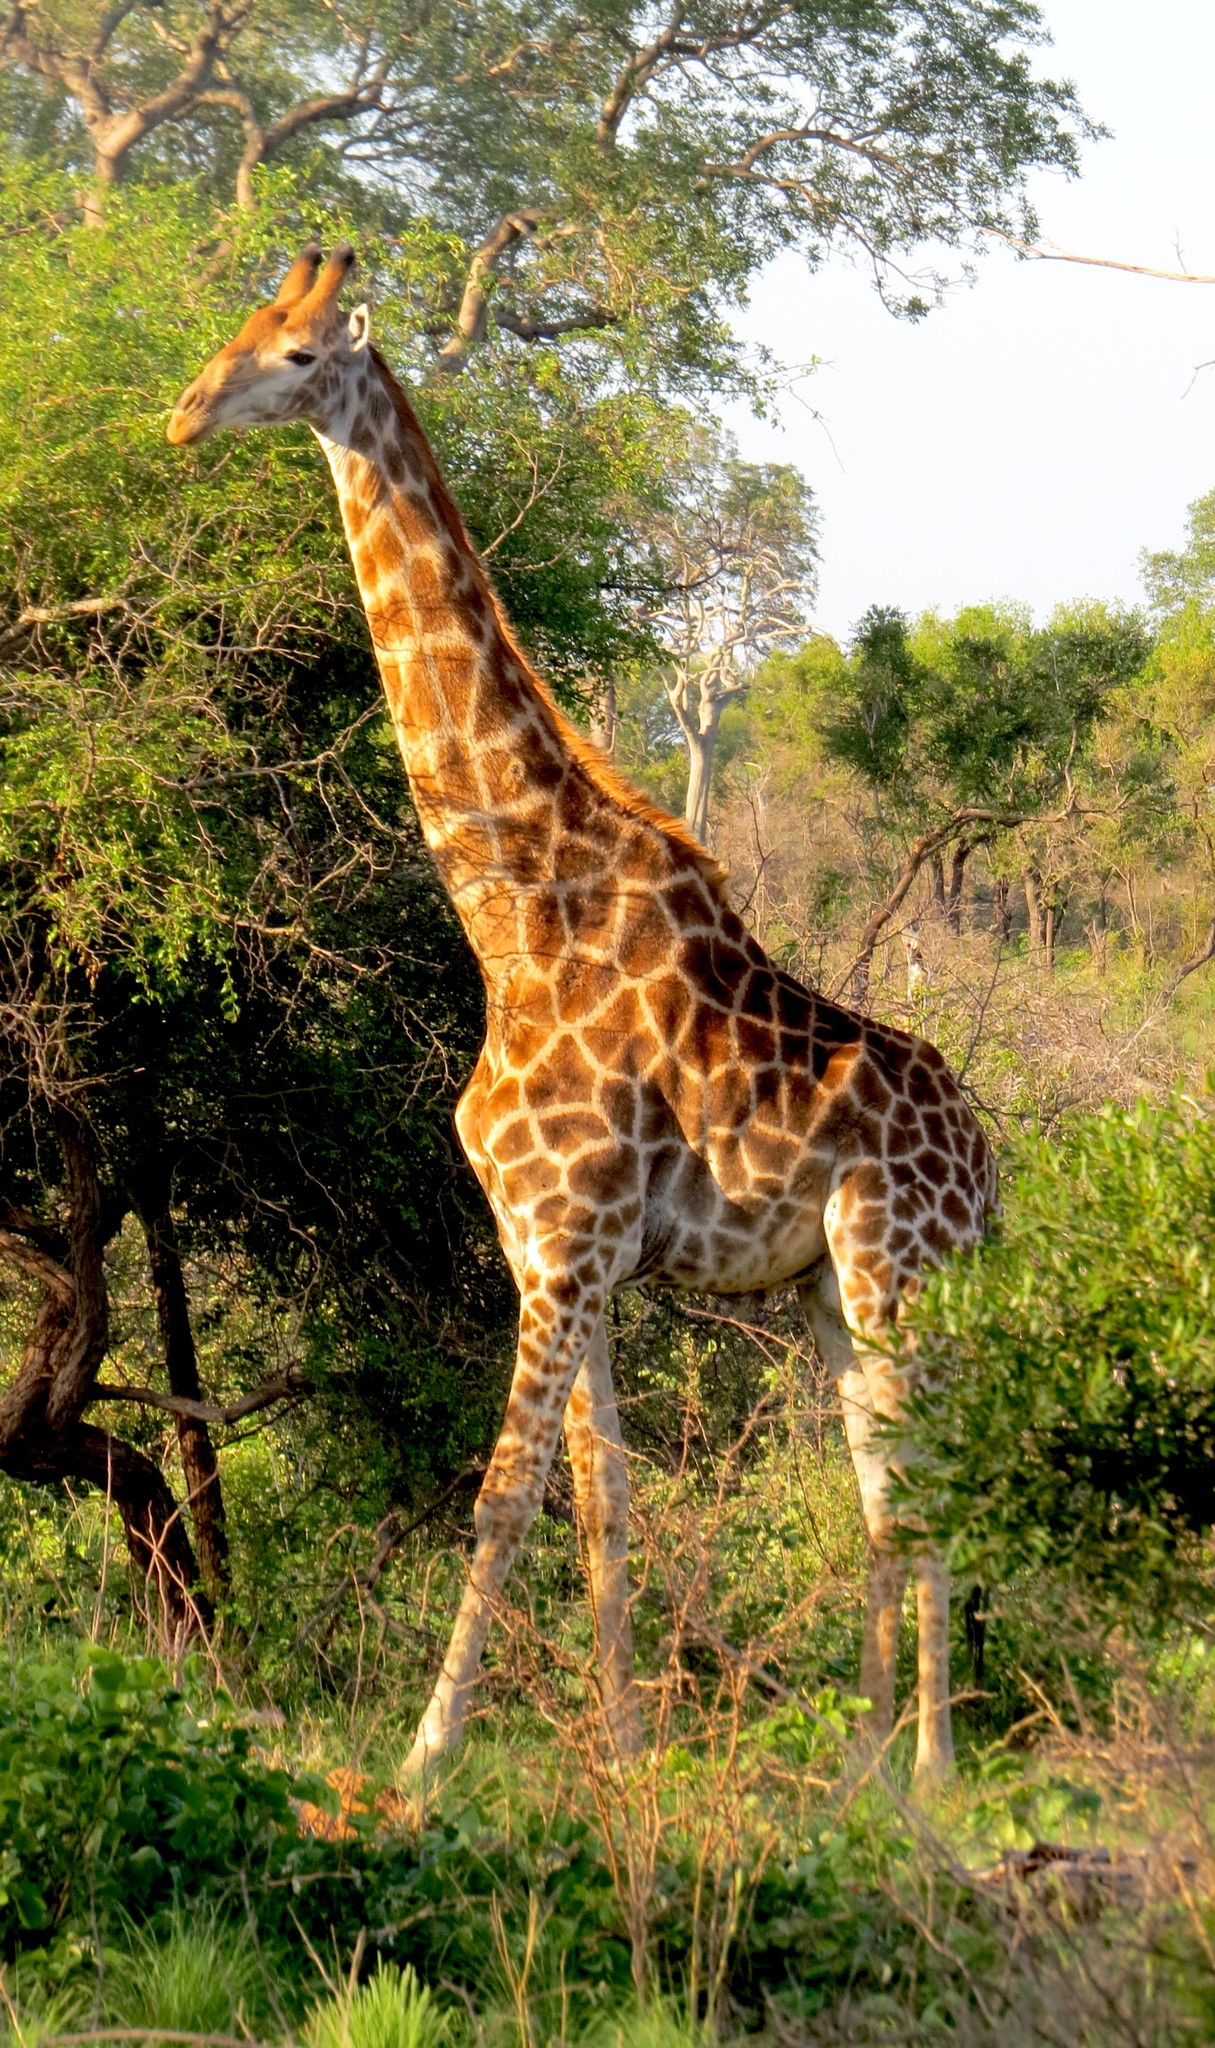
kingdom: Animalia
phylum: Chordata
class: Mammalia
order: Artiodactyla
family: Giraffidae
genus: Giraffa
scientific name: Giraffa giraffa
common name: Southern giraffe
